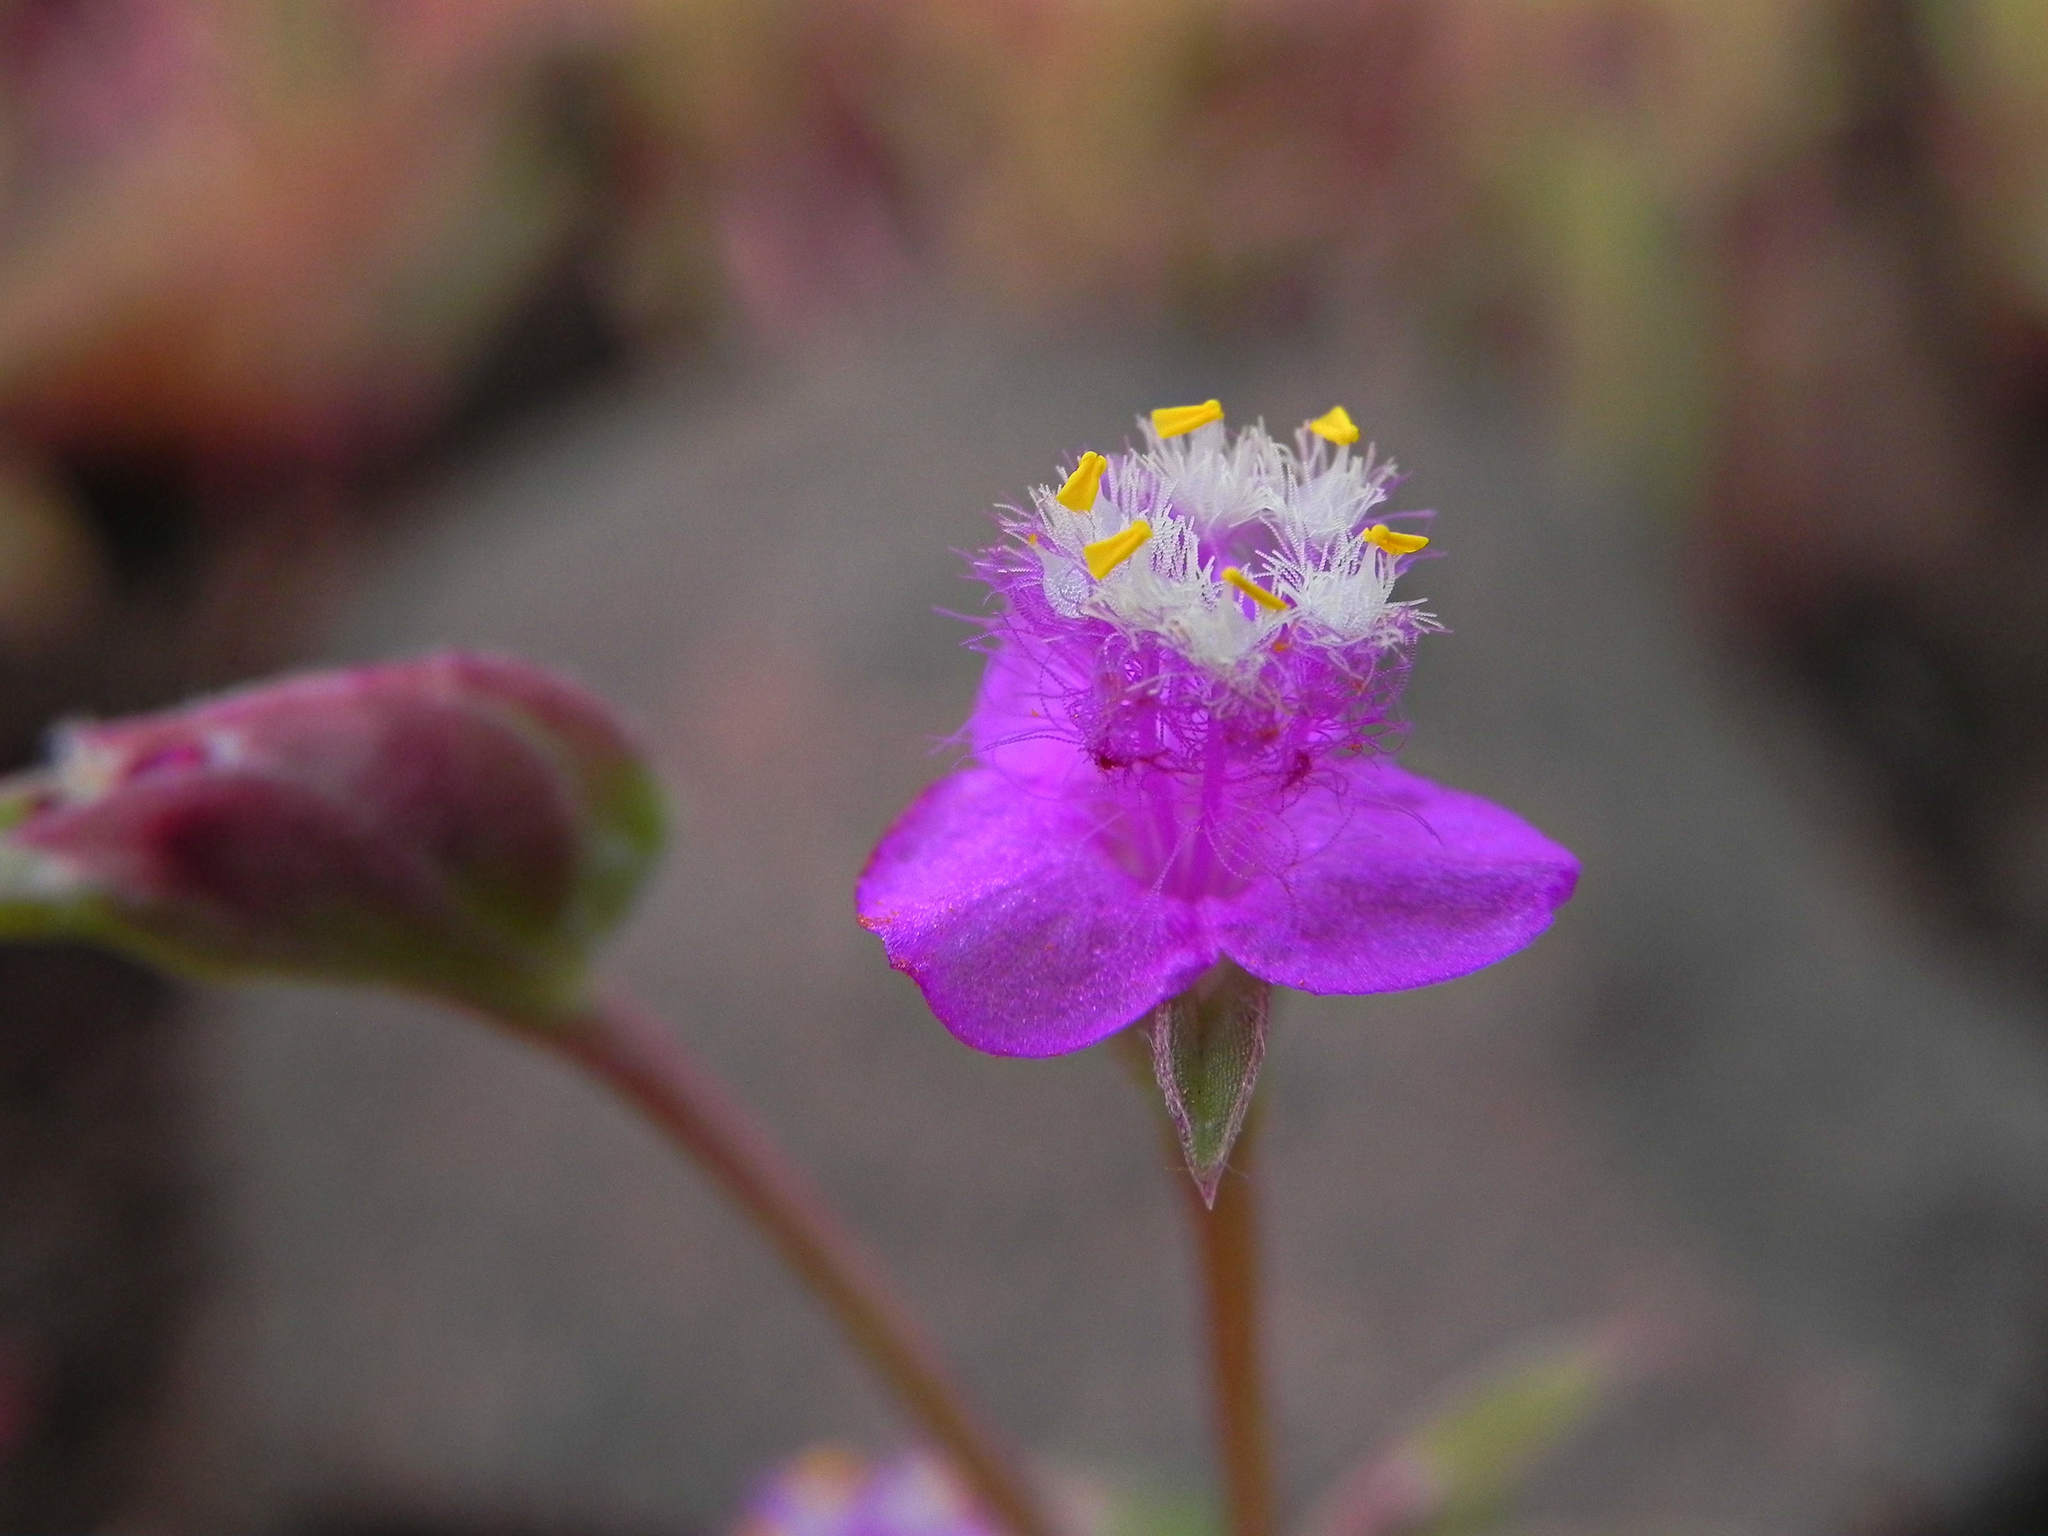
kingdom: Plantae
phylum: Tracheophyta
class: Liliopsida
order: Commelinales
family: Commelinaceae
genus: Cyanotis
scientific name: Cyanotis fasciculata
